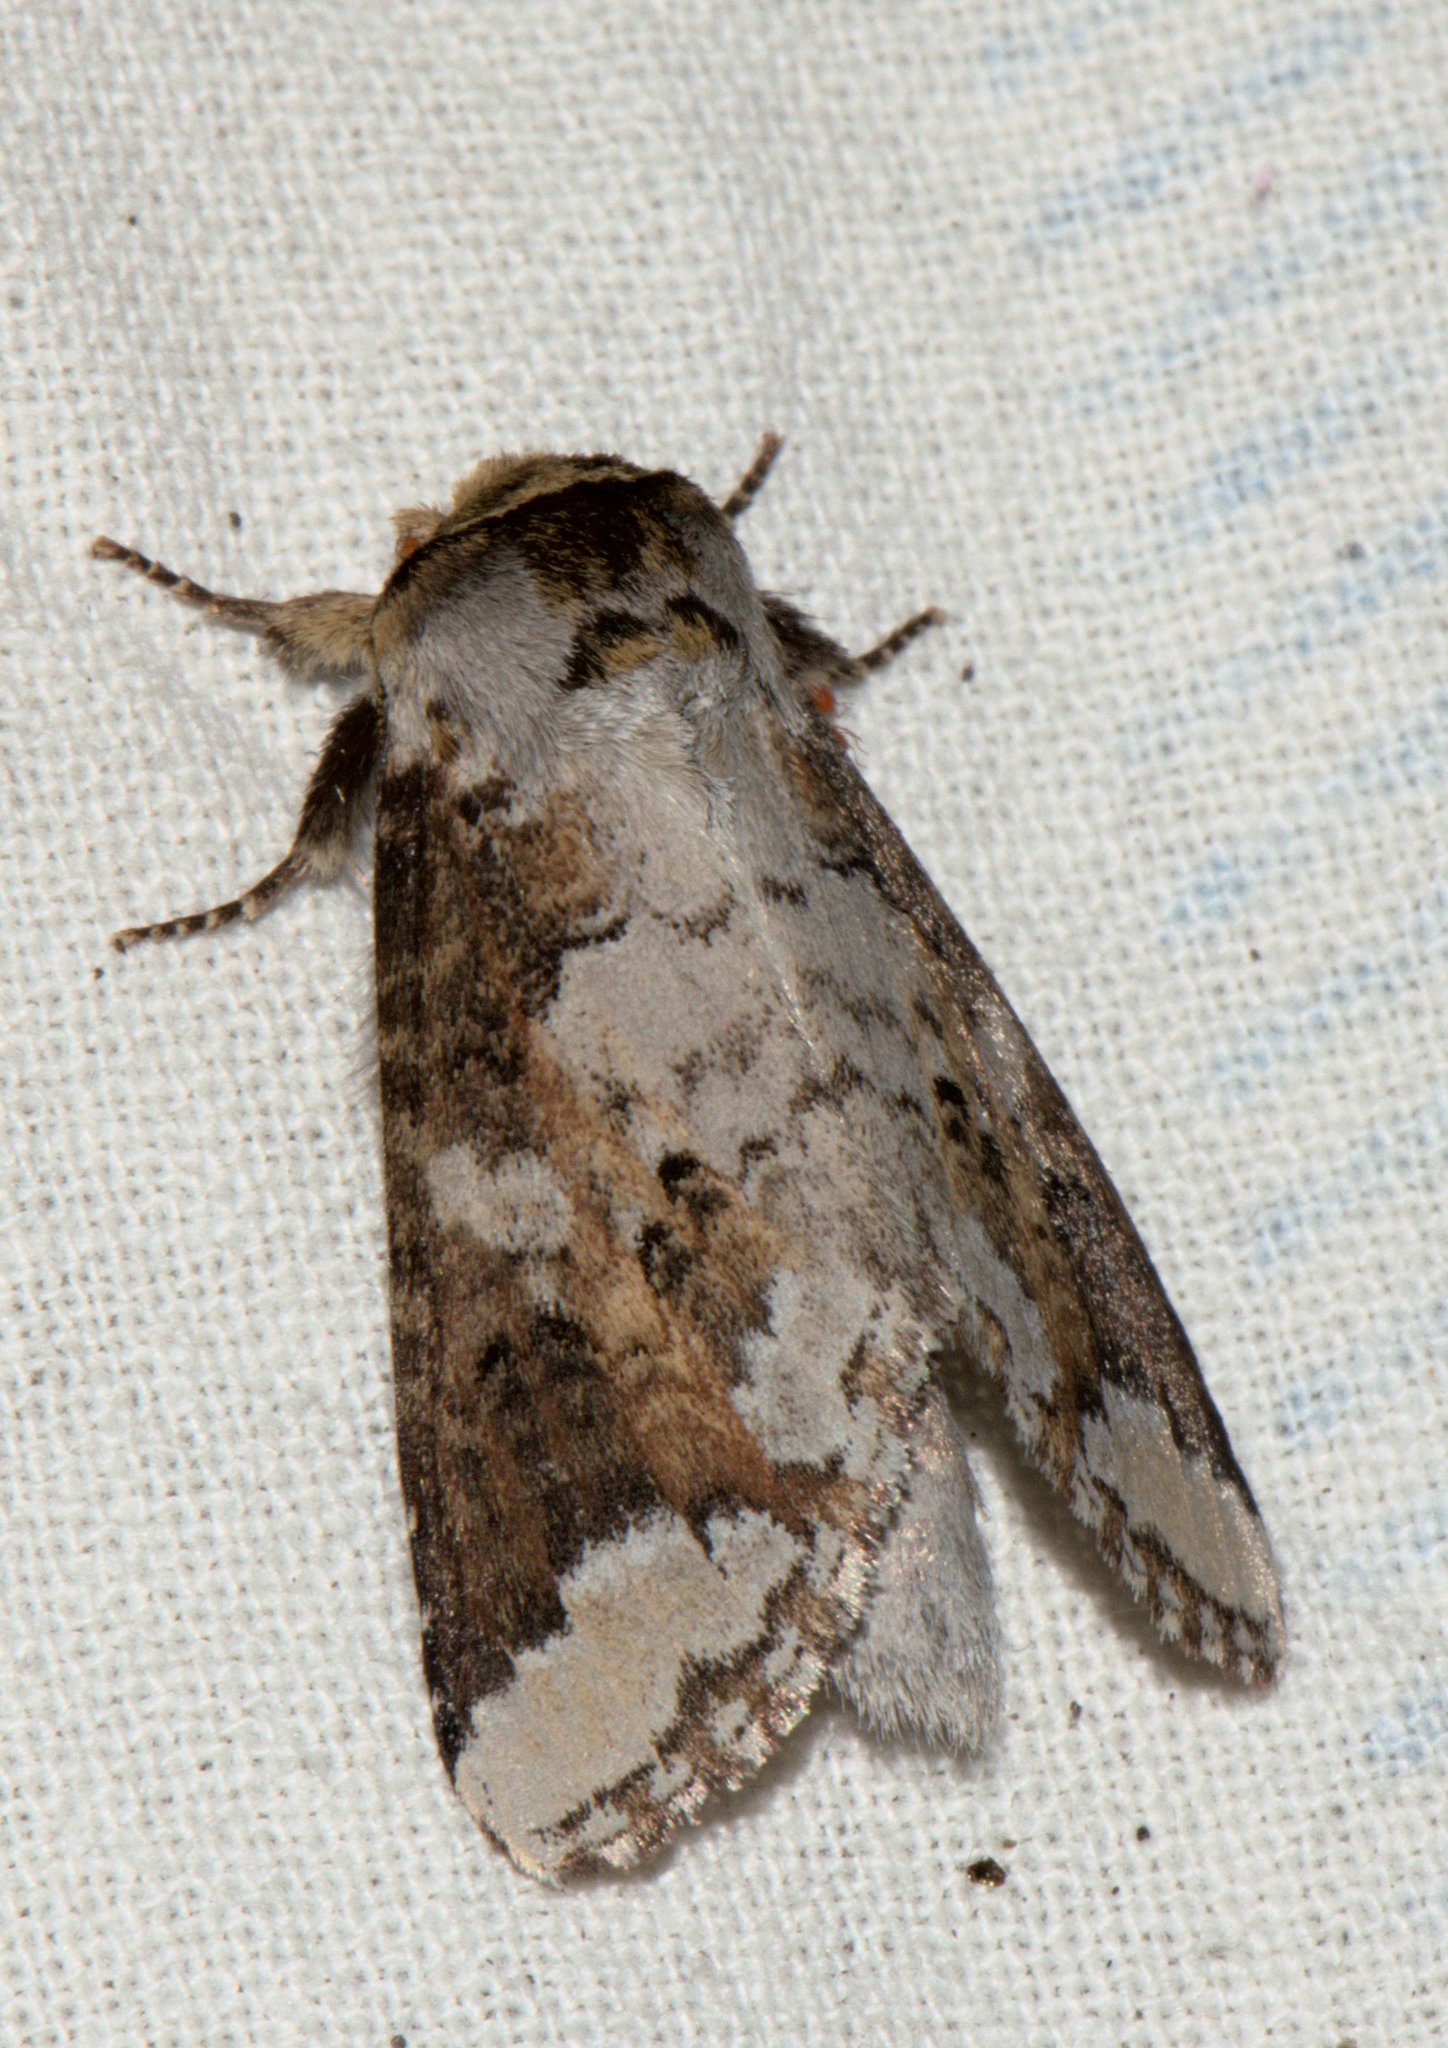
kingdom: Animalia
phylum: Arthropoda
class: Insecta
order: Lepidoptera
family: Notodontidae
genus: Neodrymonia
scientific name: Neodrymonia canifusa
